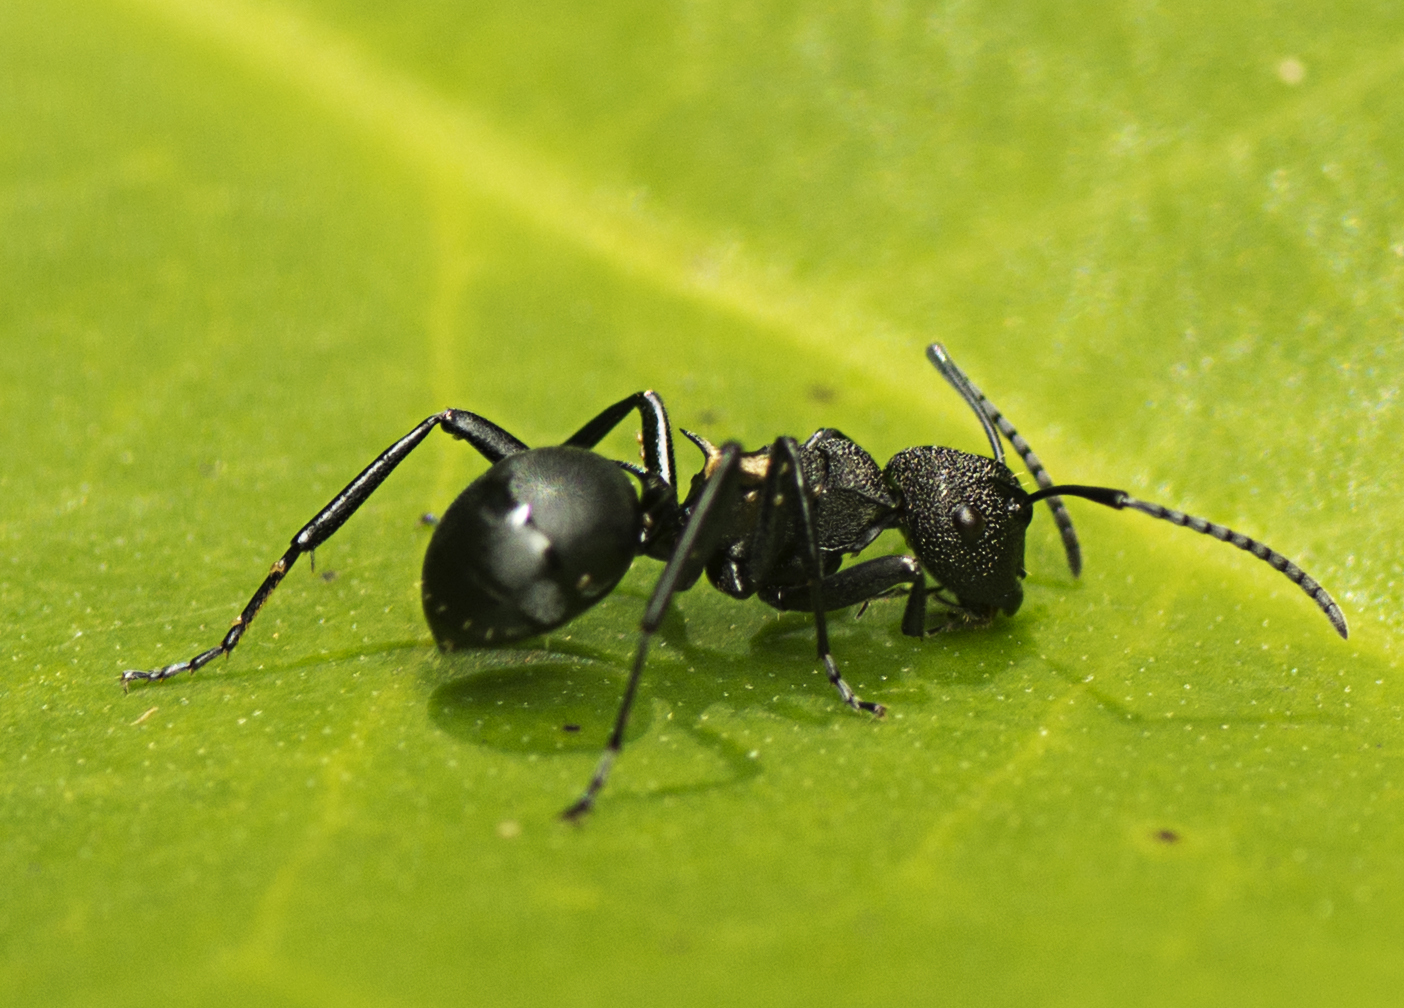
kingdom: Animalia
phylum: Arthropoda
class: Insecta
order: Hymenoptera
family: Formicidae
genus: Polyrhachis
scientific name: Polyrhachis machaon
